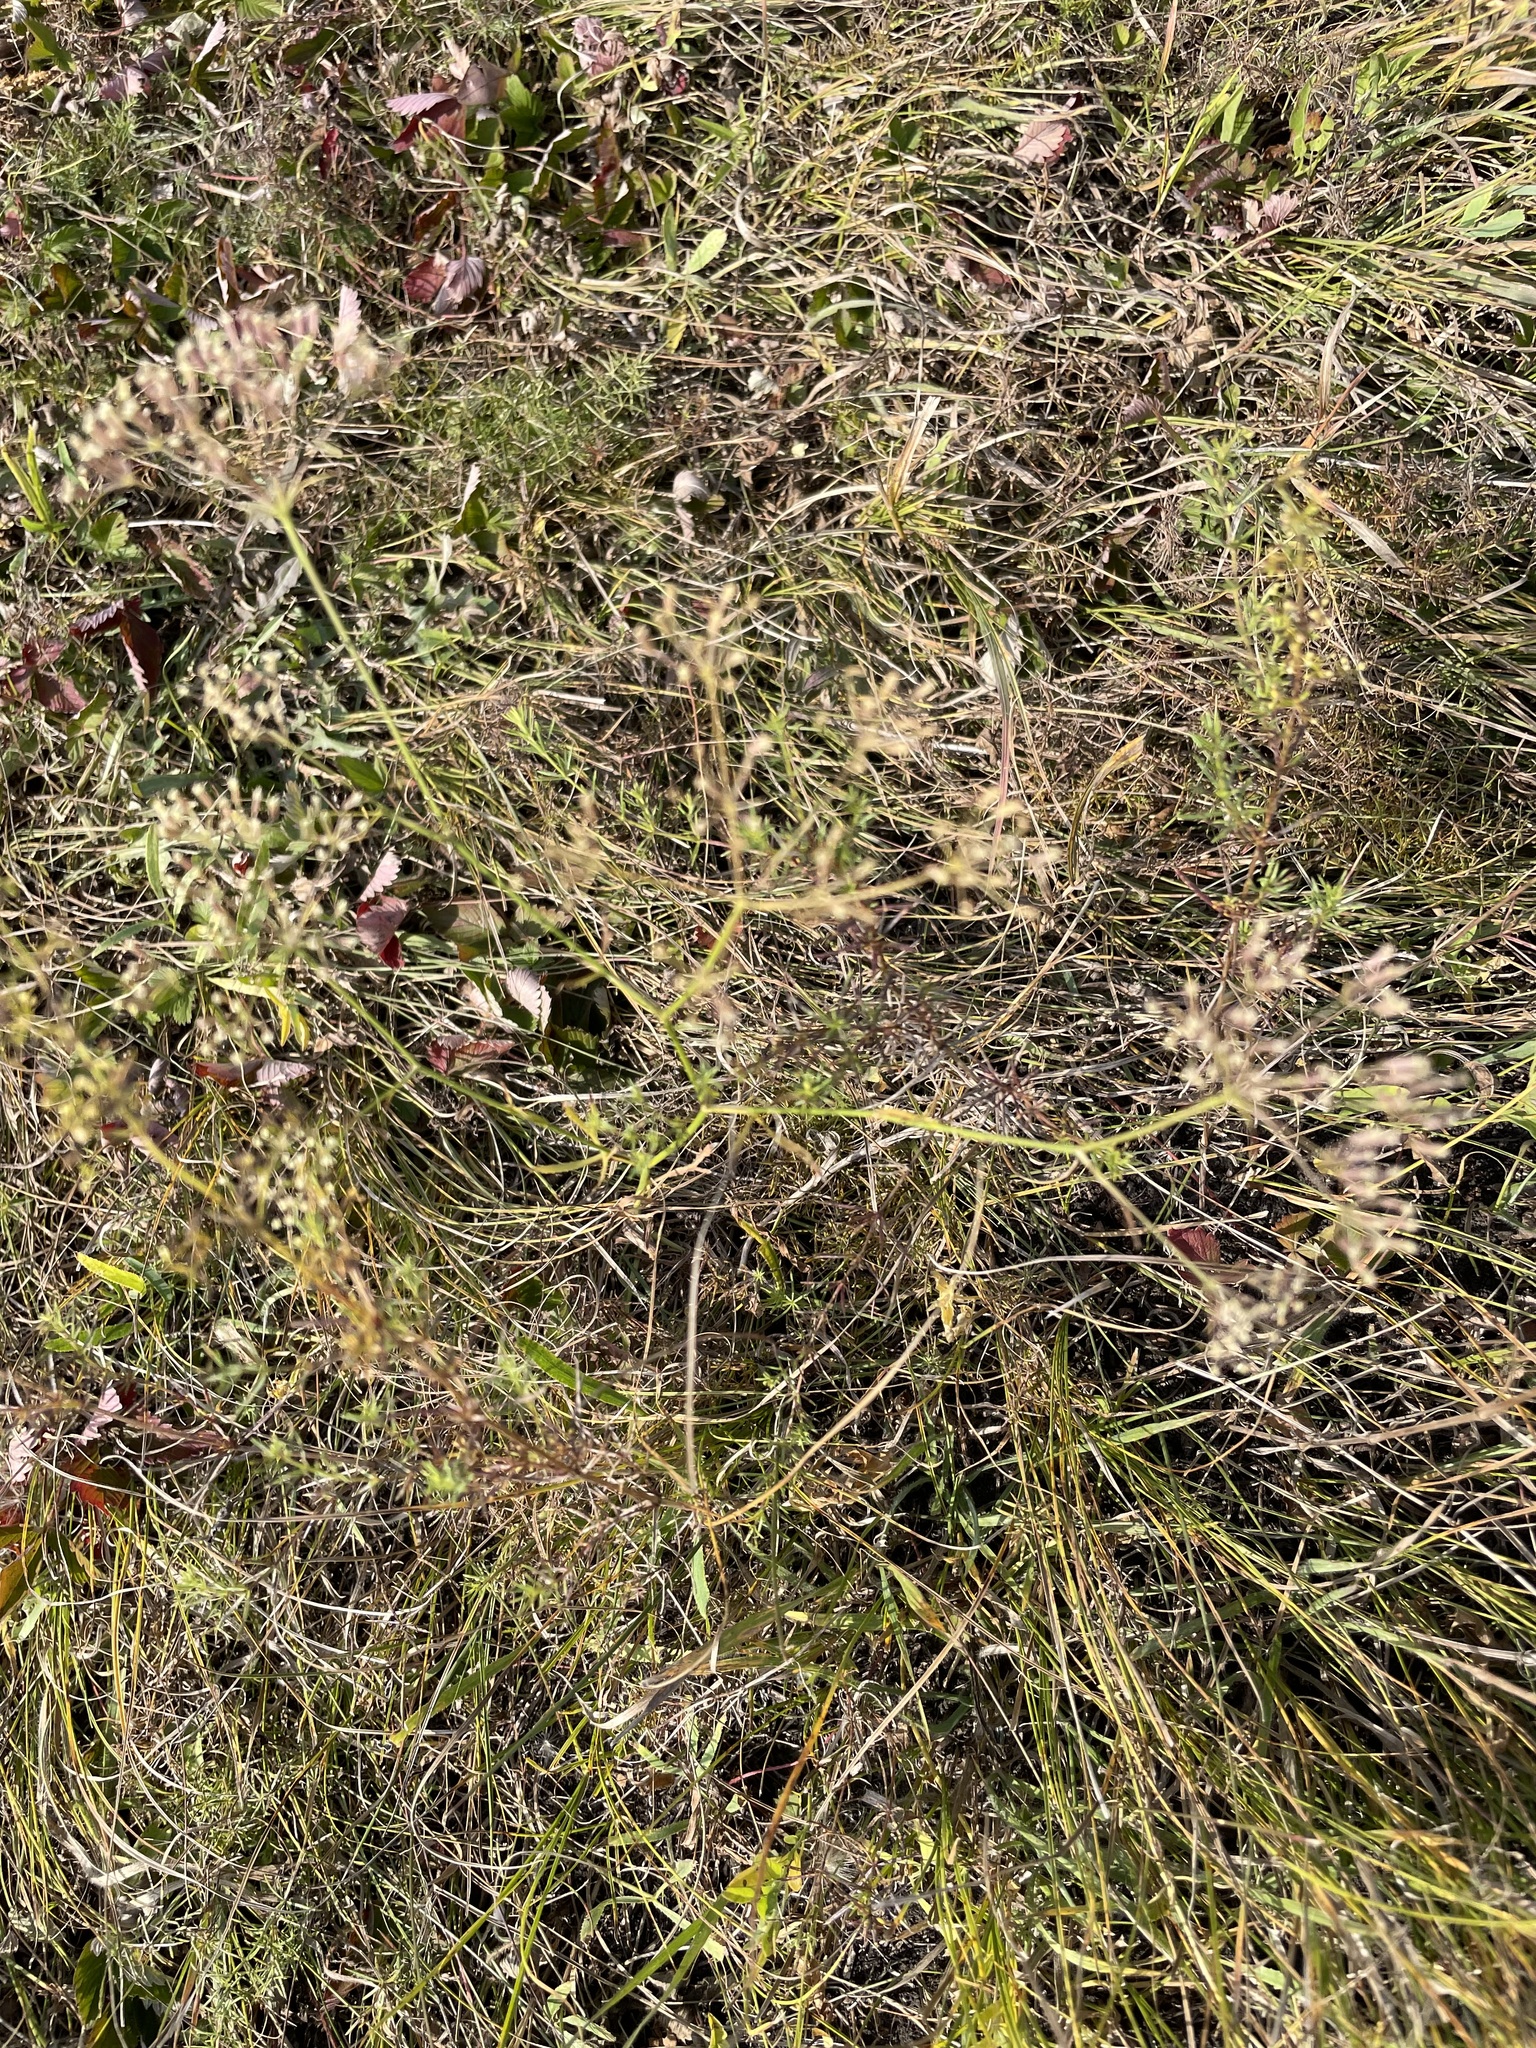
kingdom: Plantae
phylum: Tracheophyta
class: Magnoliopsida
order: Apiales
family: Apiaceae
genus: Falcaria
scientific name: Falcaria vulgaris
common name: Longleaf
